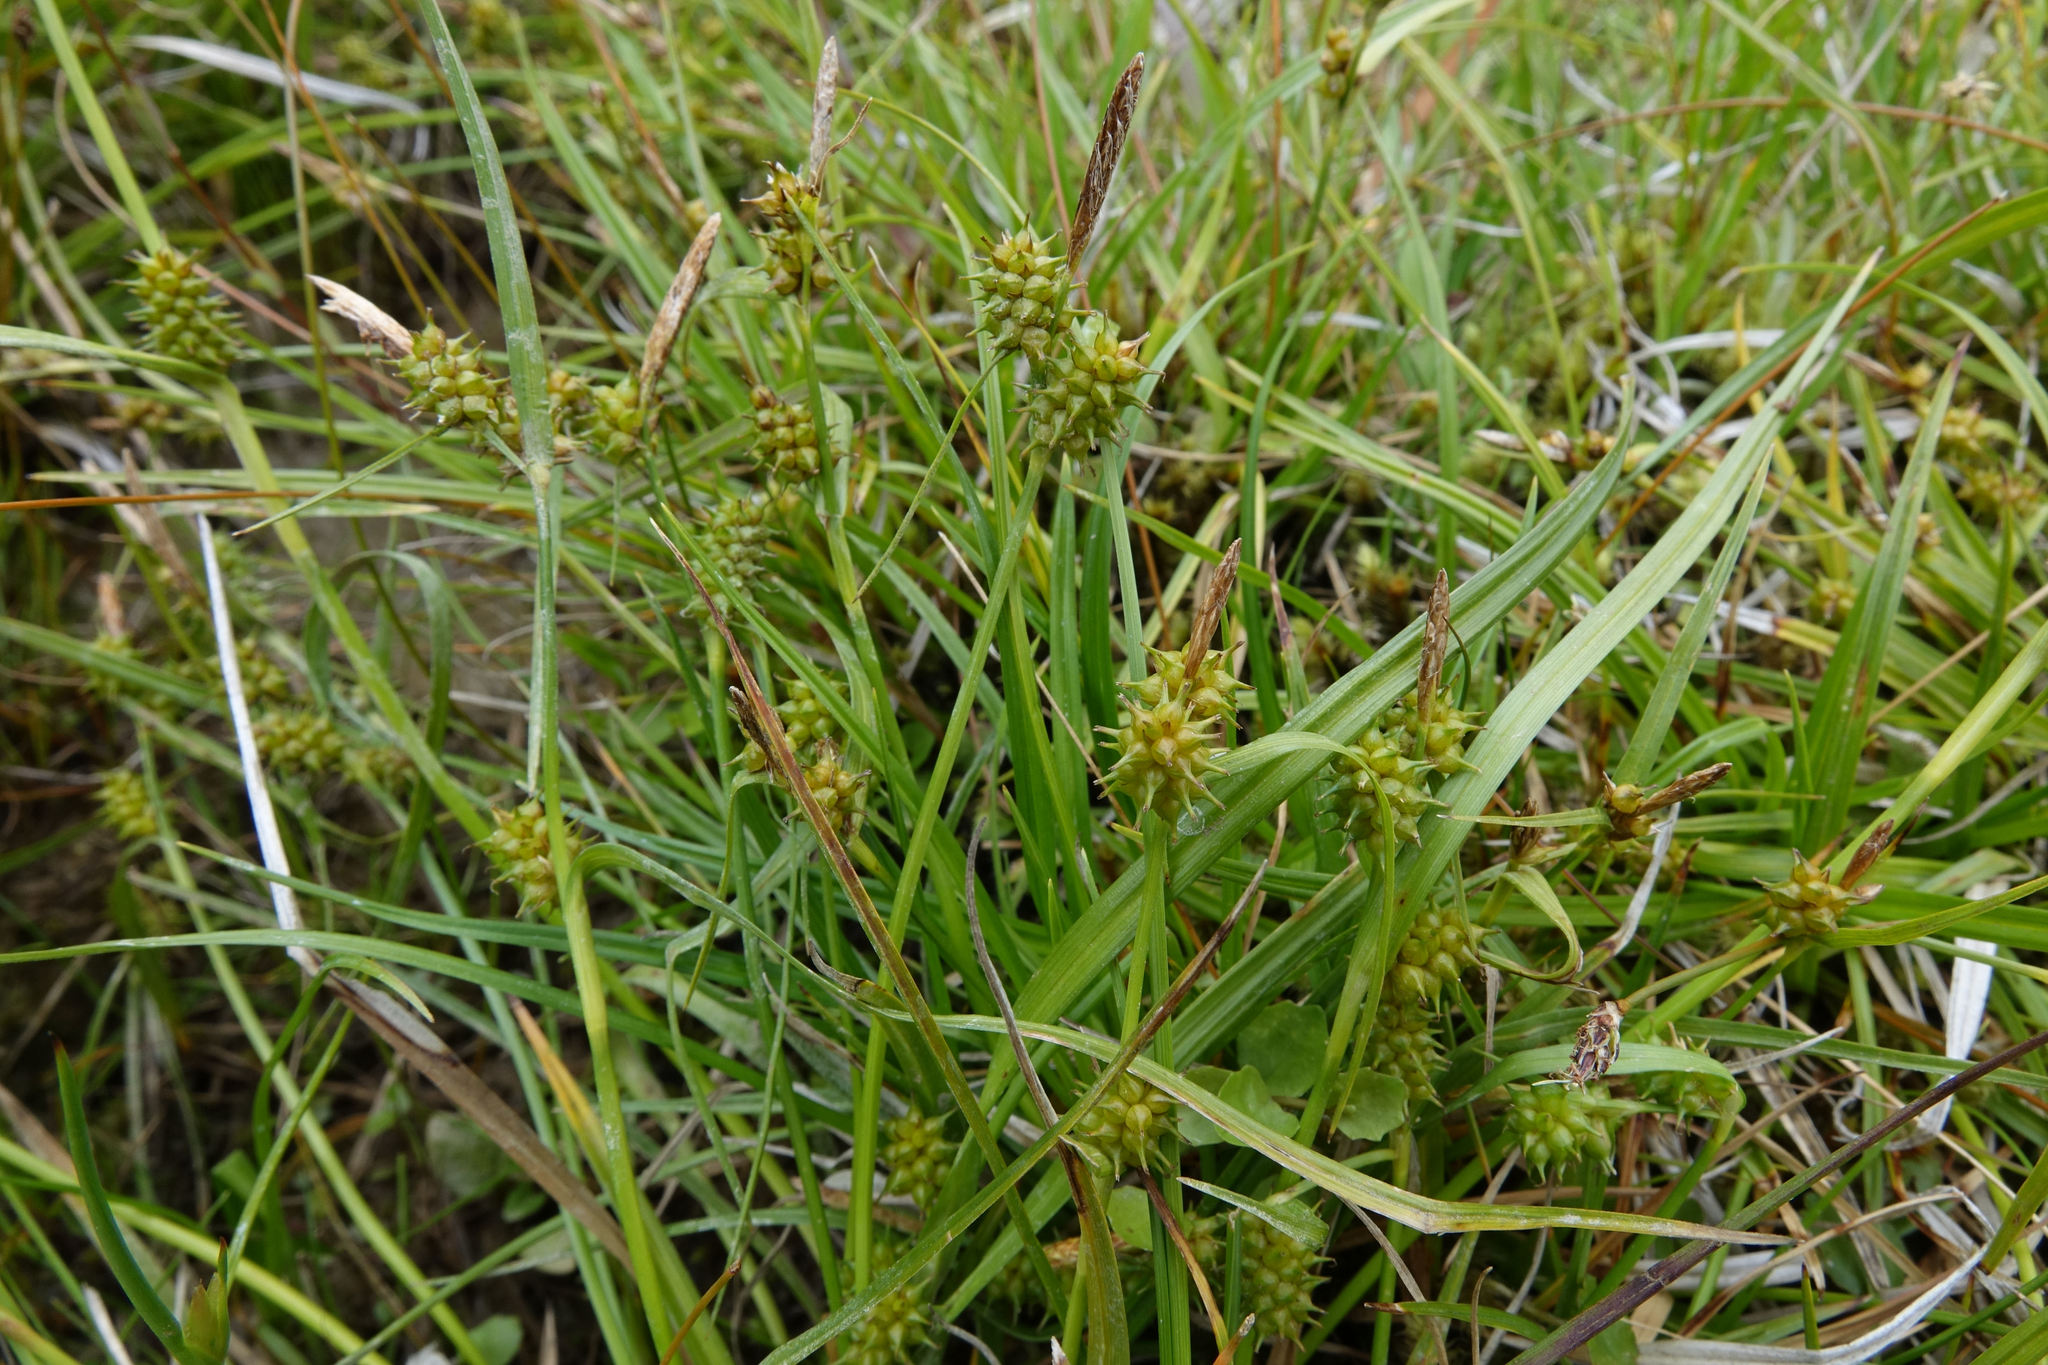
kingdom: Plantae
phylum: Tracheophyta
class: Liliopsida
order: Poales
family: Cyperaceae
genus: Carex
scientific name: Carex demissa
